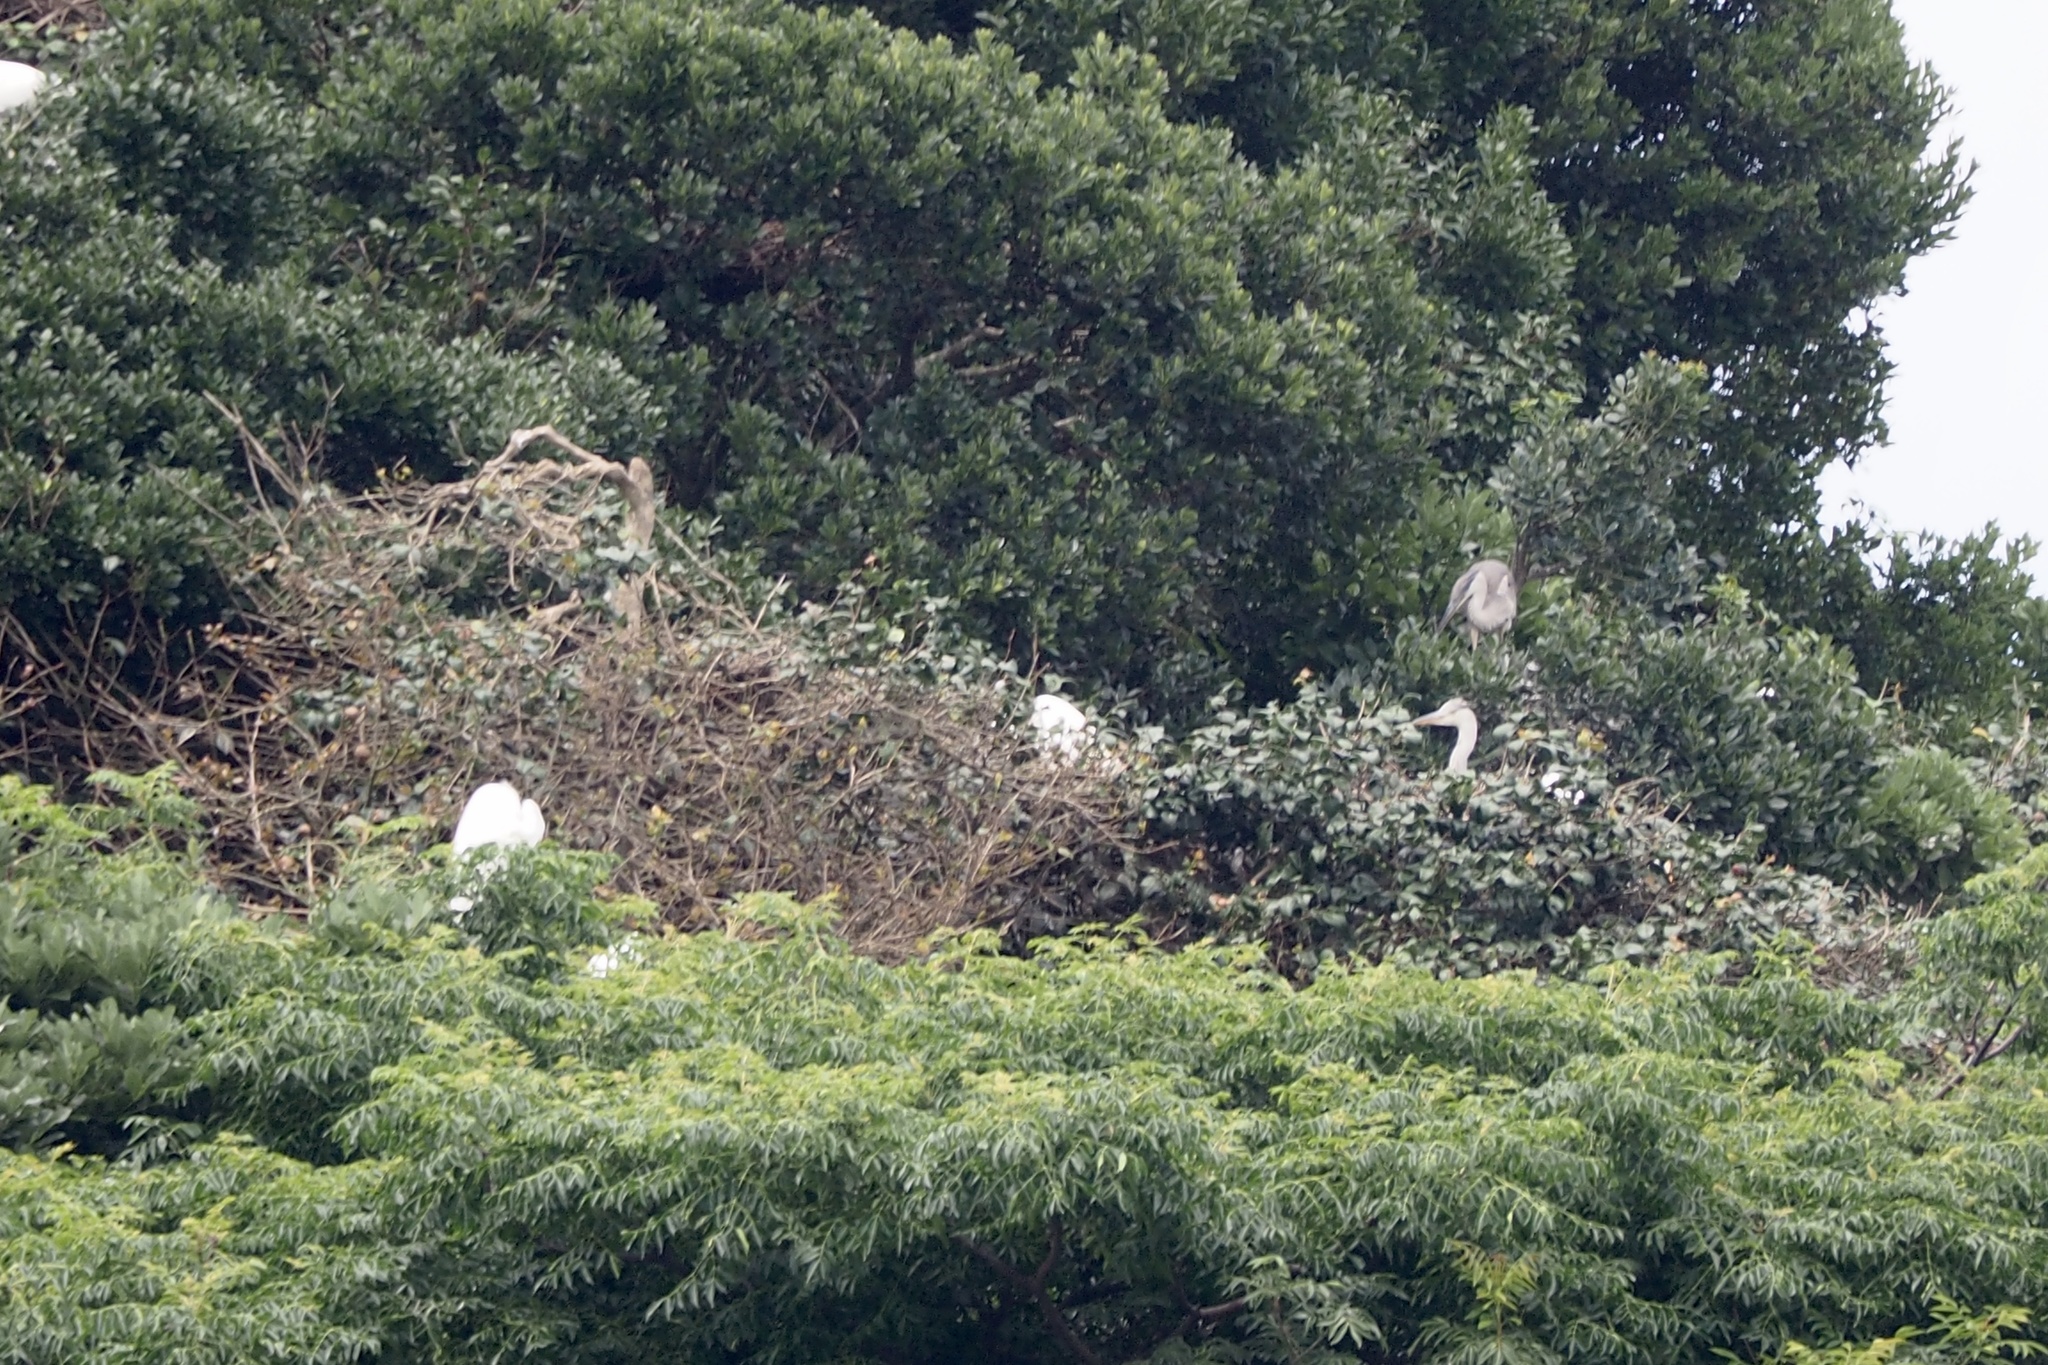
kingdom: Animalia
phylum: Chordata
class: Aves
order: Pelecaniformes
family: Ardeidae
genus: Ardea
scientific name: Ardea cinerea
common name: Grey heron
